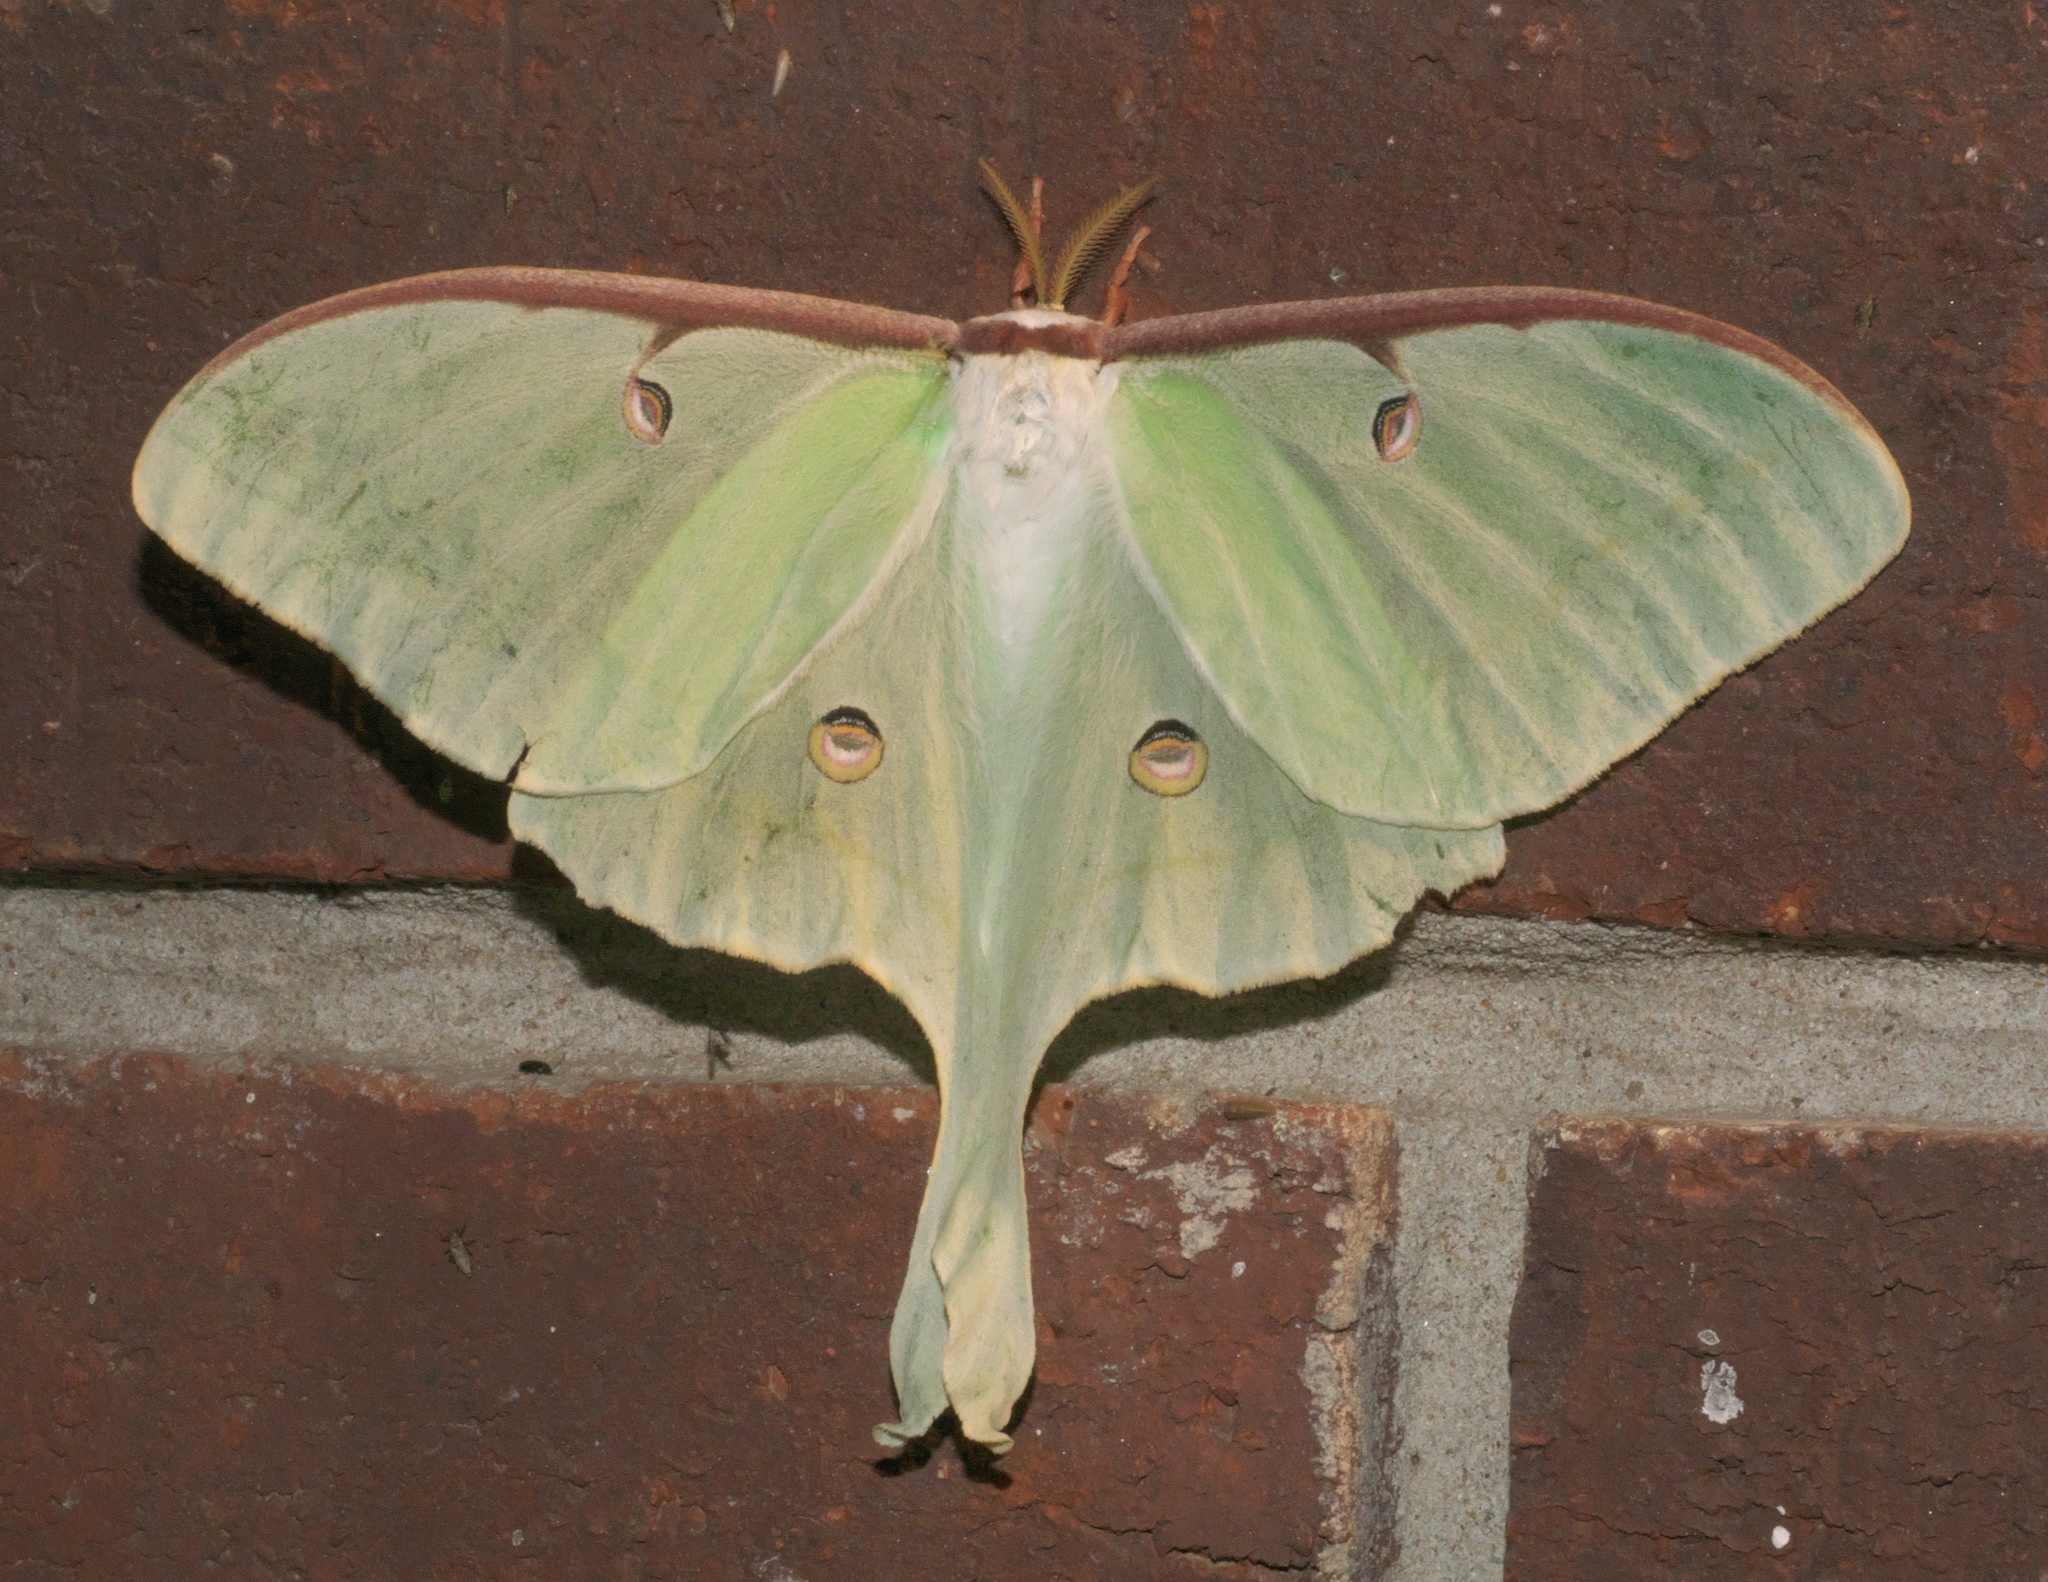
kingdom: Animalia
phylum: Arthropoda
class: Insecta
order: Lepidoptera
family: Saturniidae
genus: Actias
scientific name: Actias luna
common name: Luna moth
